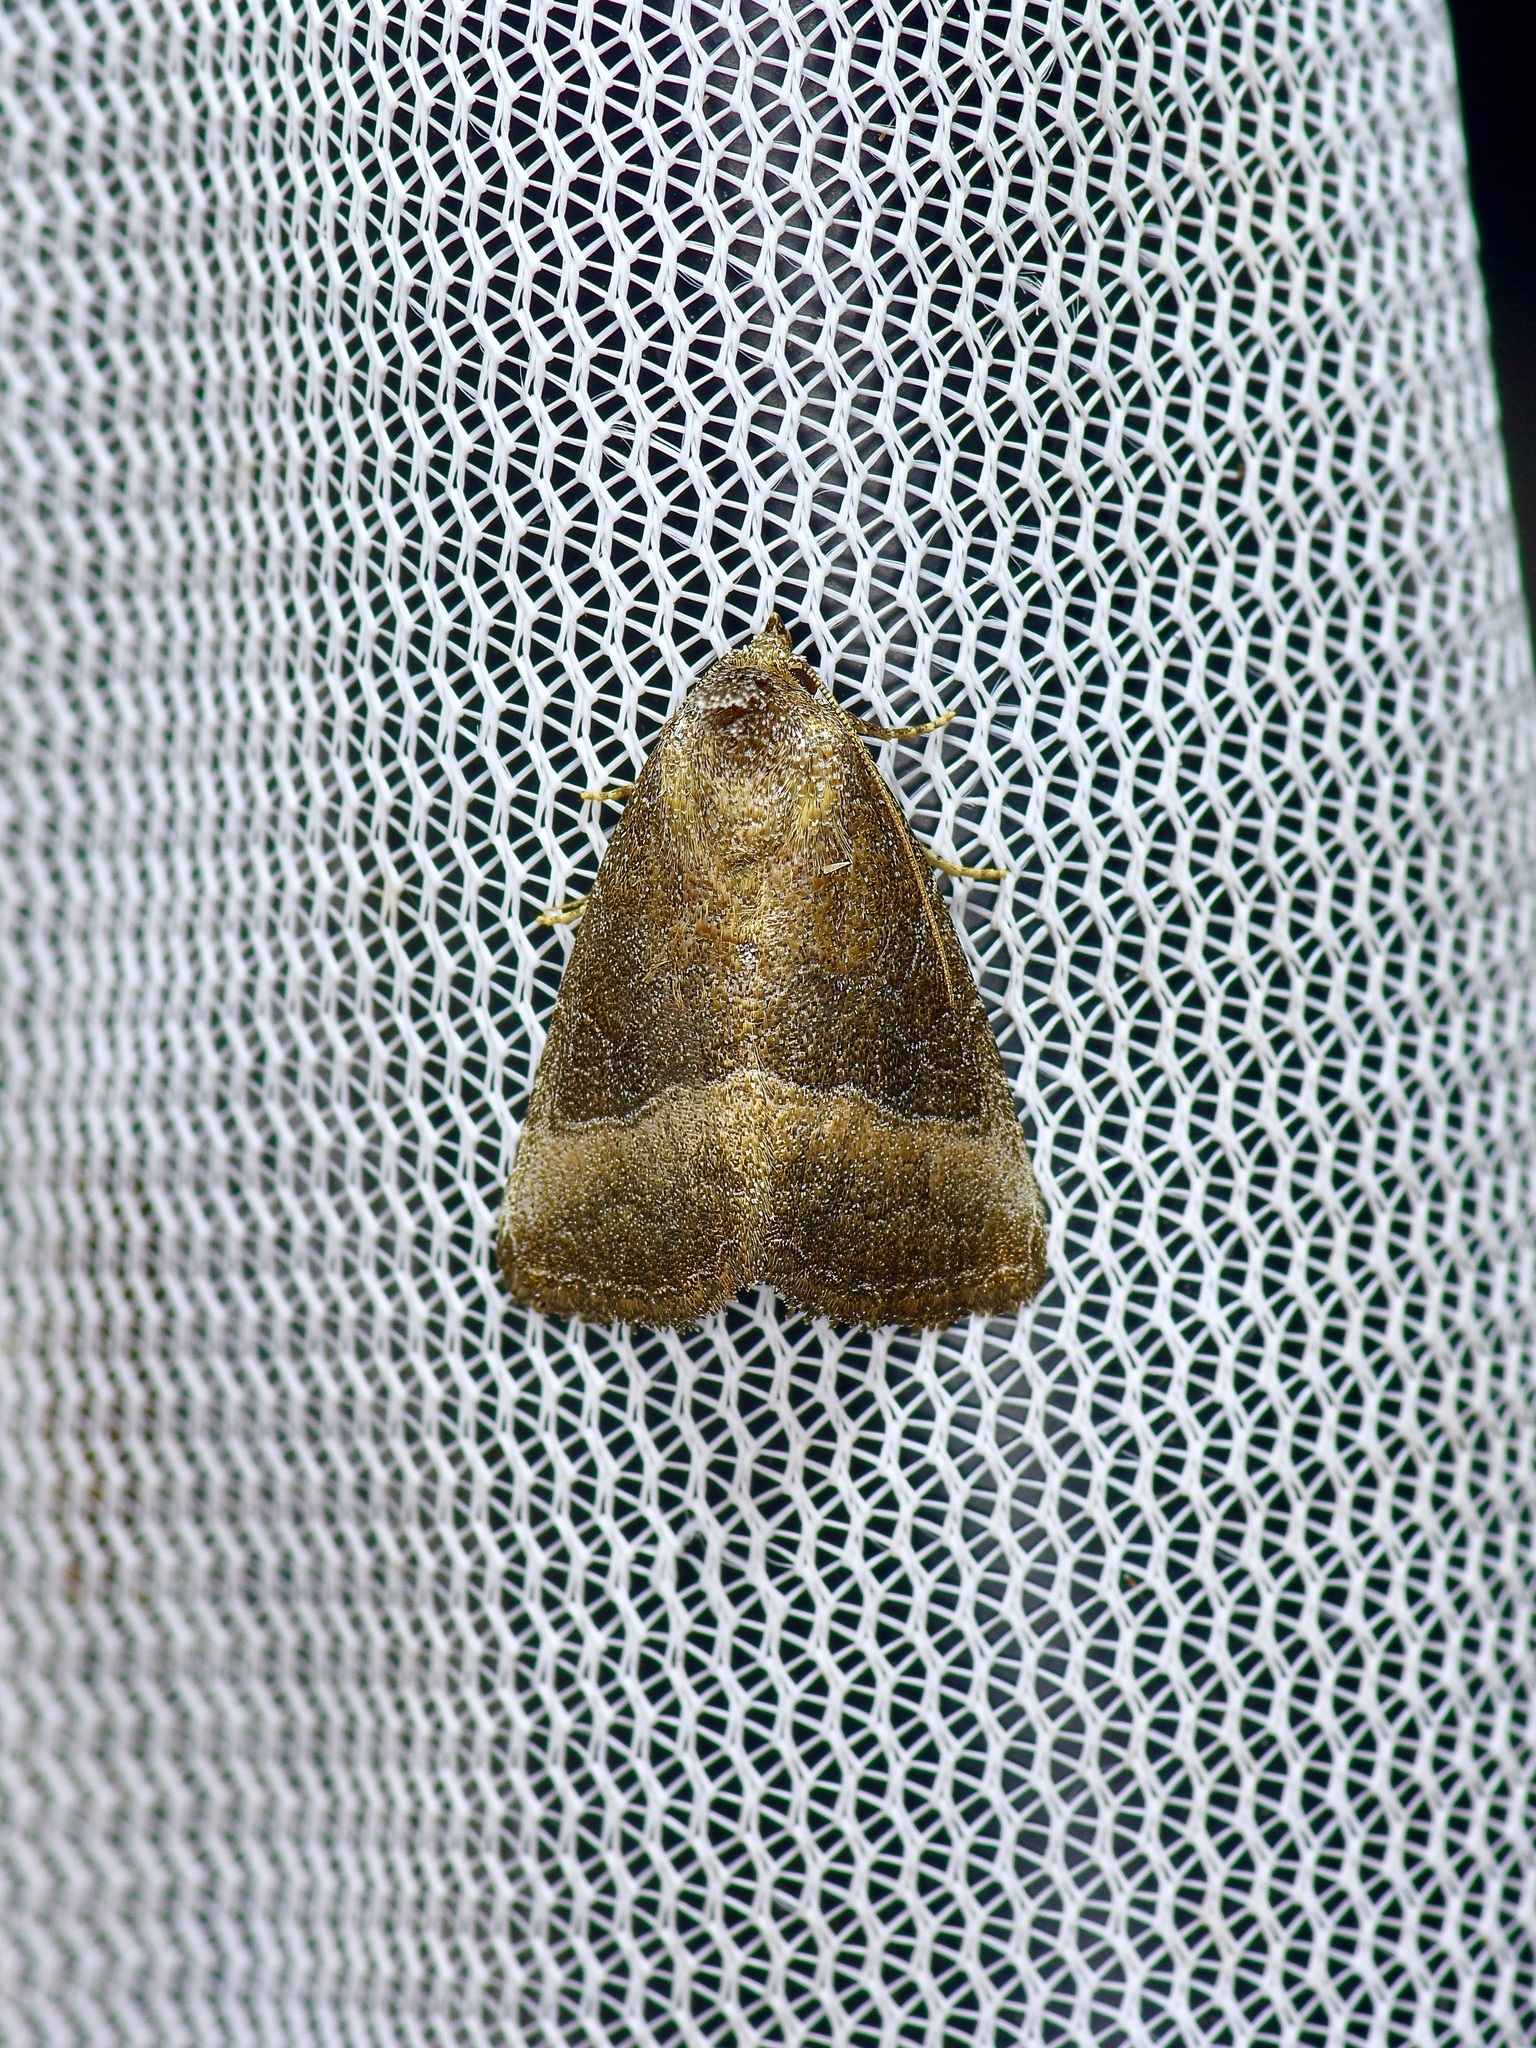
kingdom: Animalia
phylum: Arthropoda
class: Insecta
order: Lepidoptera
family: Noctuidae
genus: Ogdoconta
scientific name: Ogdoconta cinereola
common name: Common pinkband
